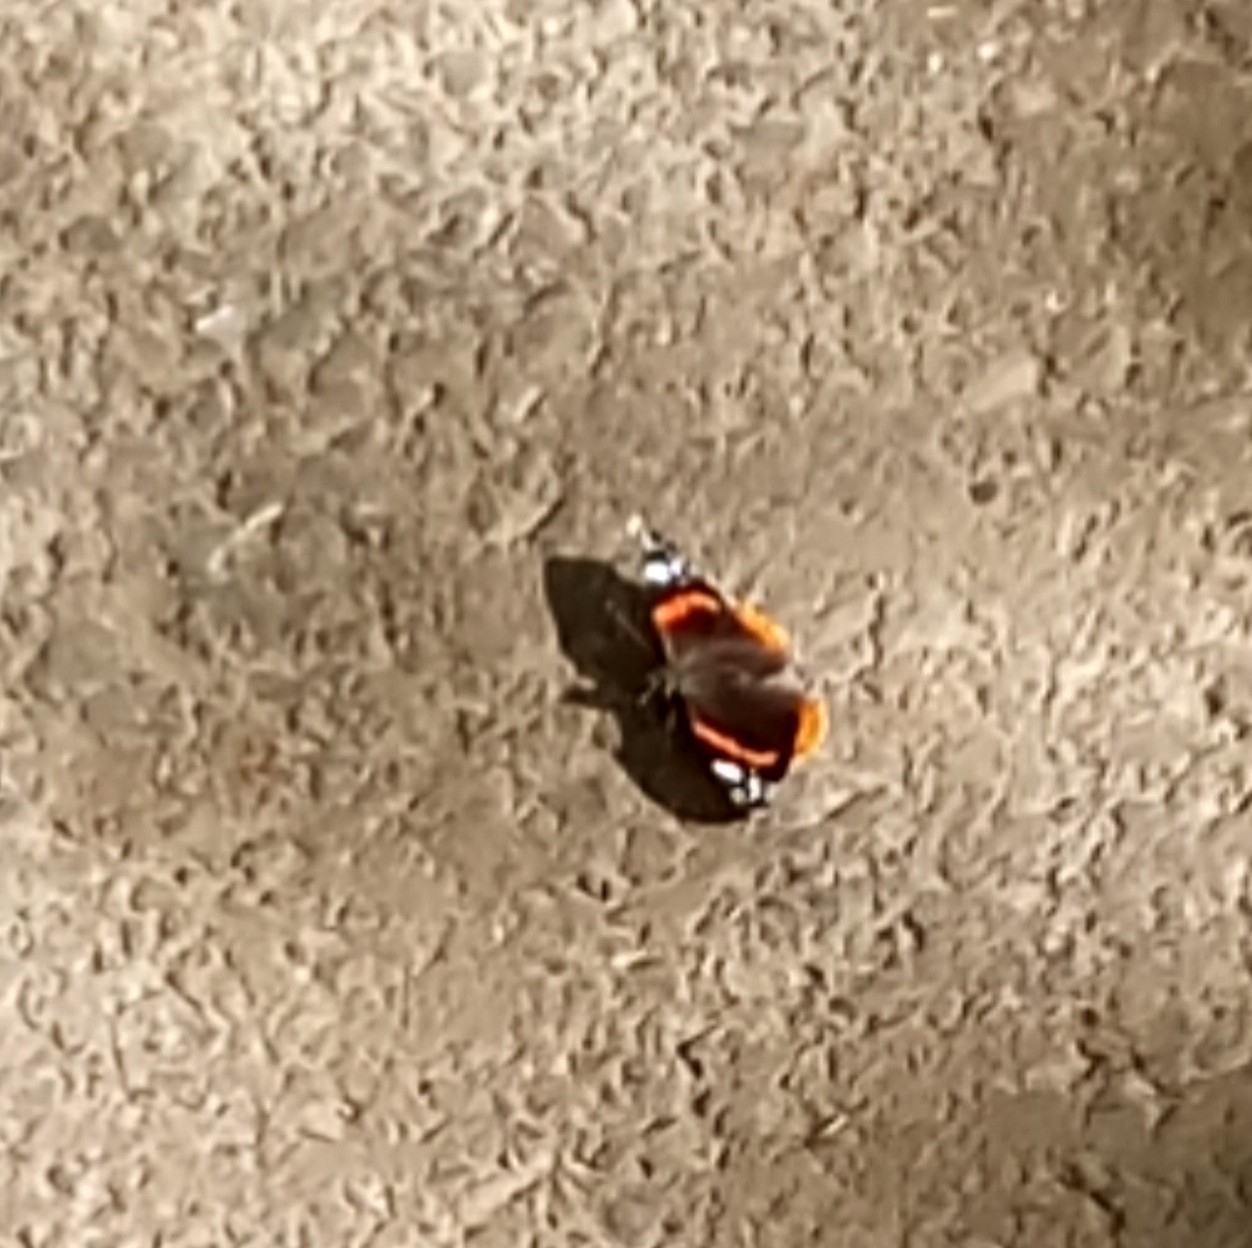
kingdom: Animalia
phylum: Arthropoda
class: Insecta
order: Lepidoptera
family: Nymphalidae
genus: Vanessa
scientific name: Vanessa atalanta
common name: Red admiral
